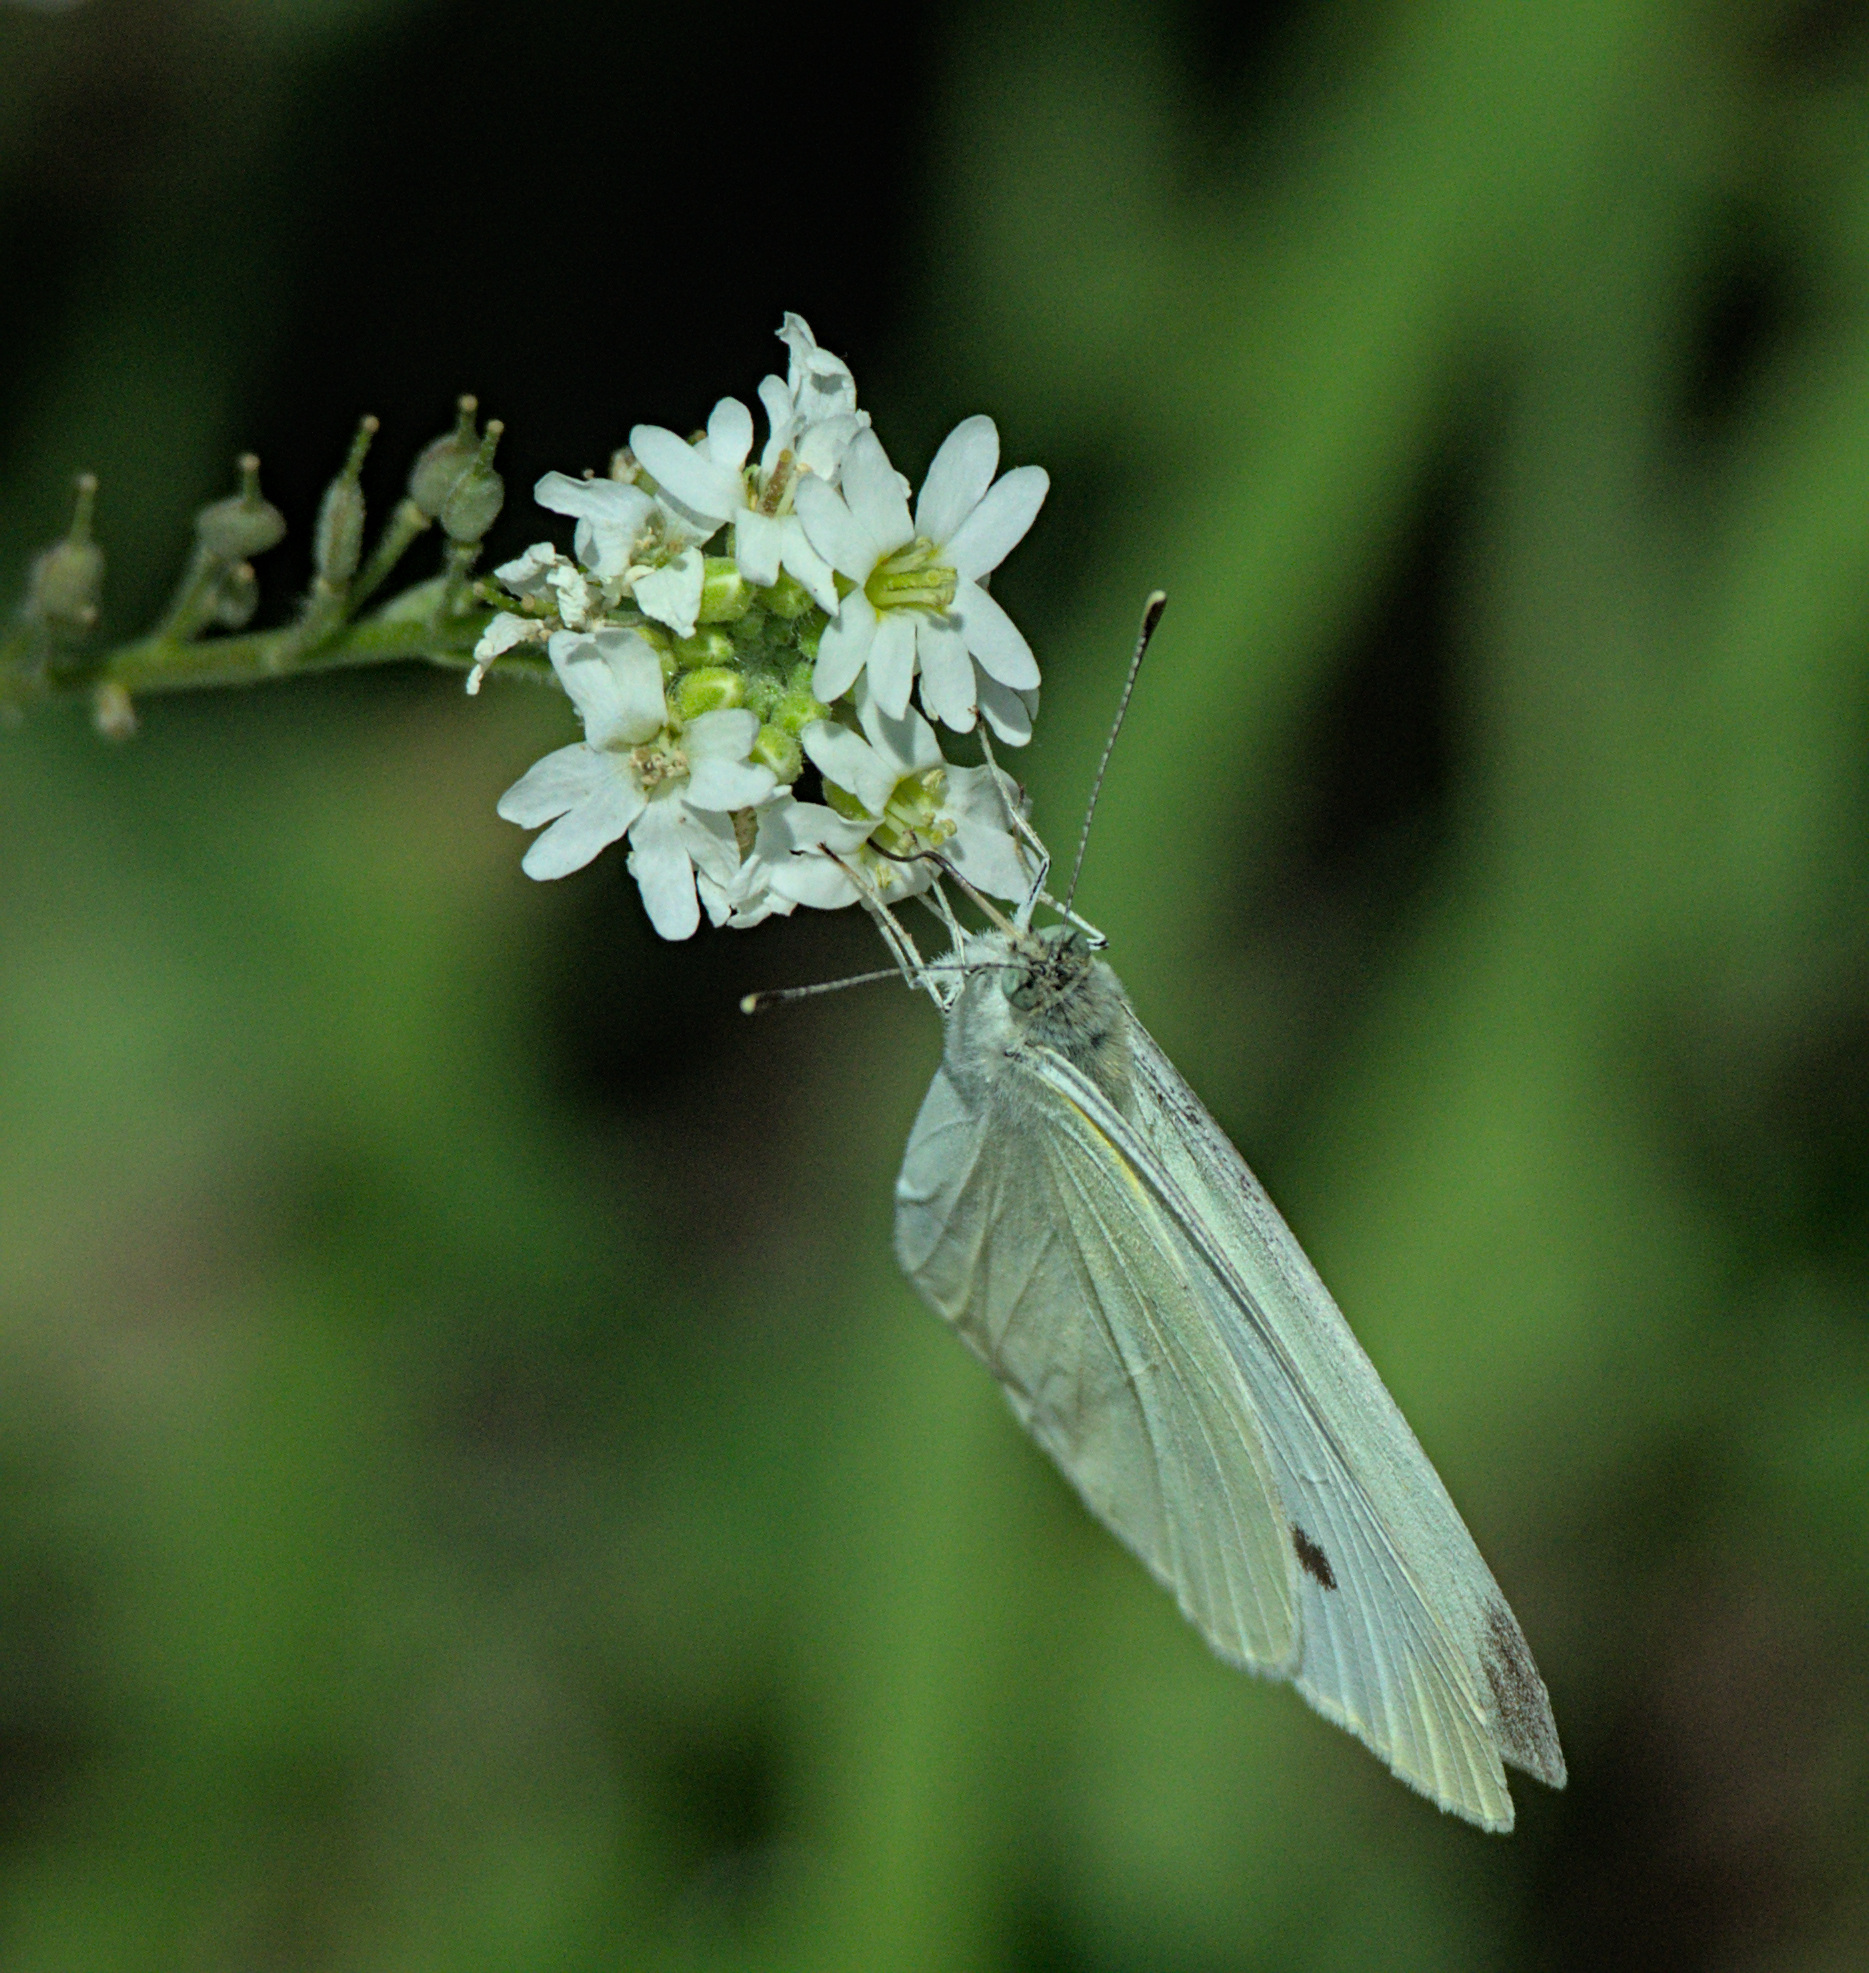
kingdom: Animalia
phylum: Arthropoda
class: Insecta
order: Lepidoptera
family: Pieridae
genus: Pieris
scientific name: Pieris rapae
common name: Small white
